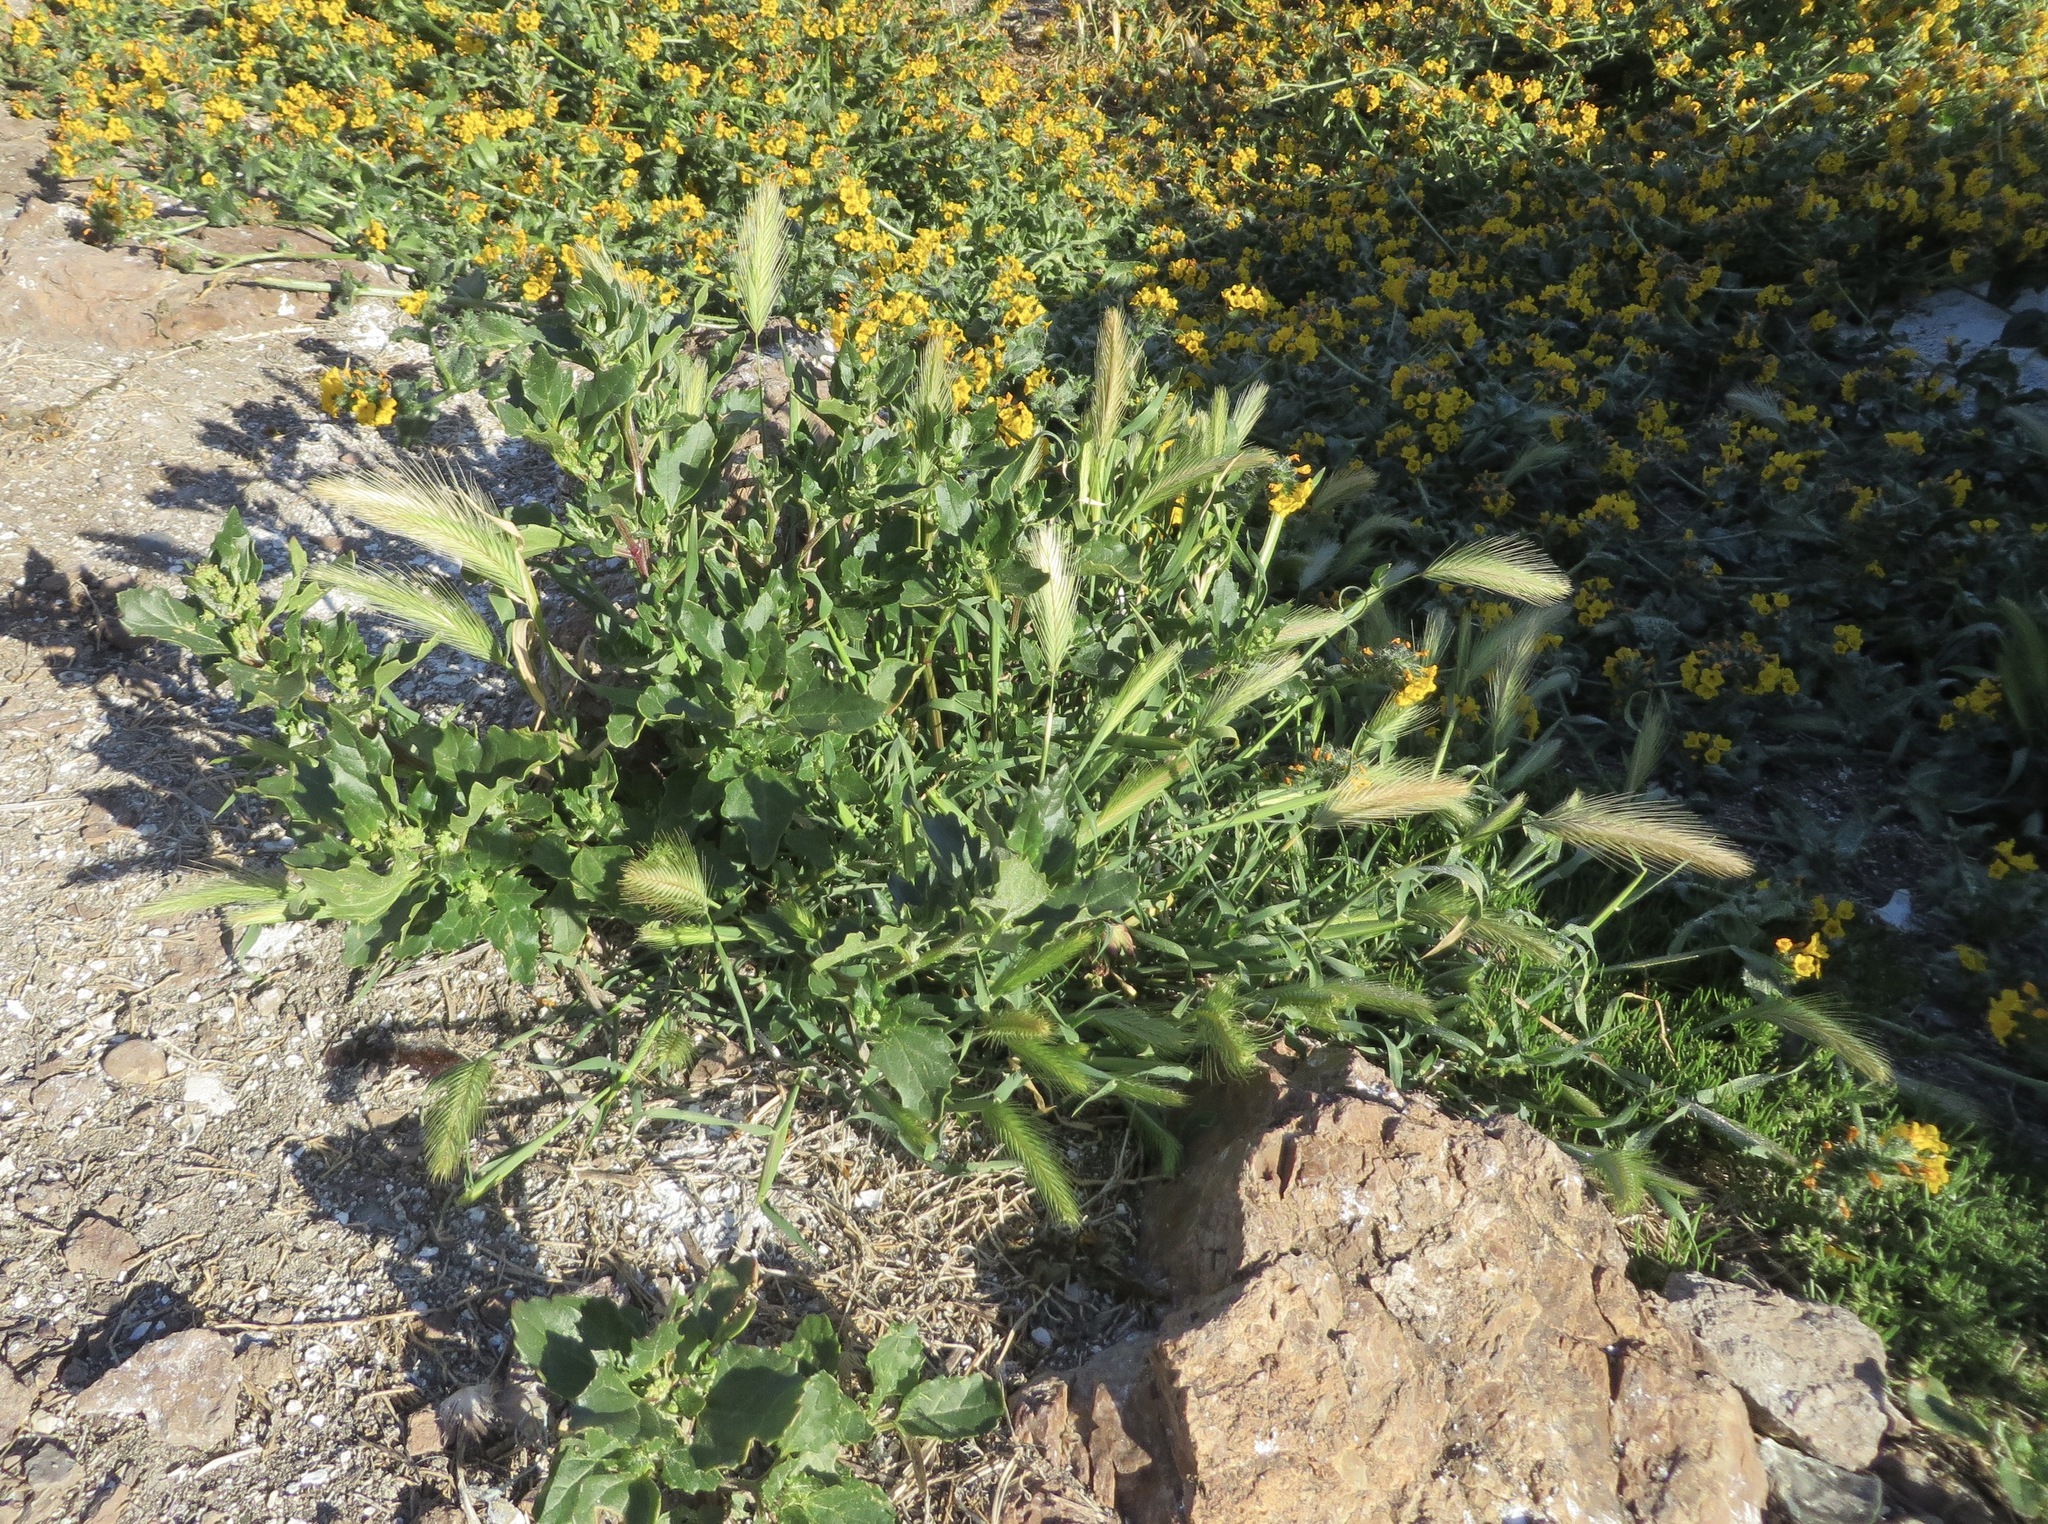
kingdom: Plantae
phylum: Tracheophyta
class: Liliopsida
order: Poales
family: Poaceae
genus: Hordeum
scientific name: Hordeum murinum
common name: Wall barley
